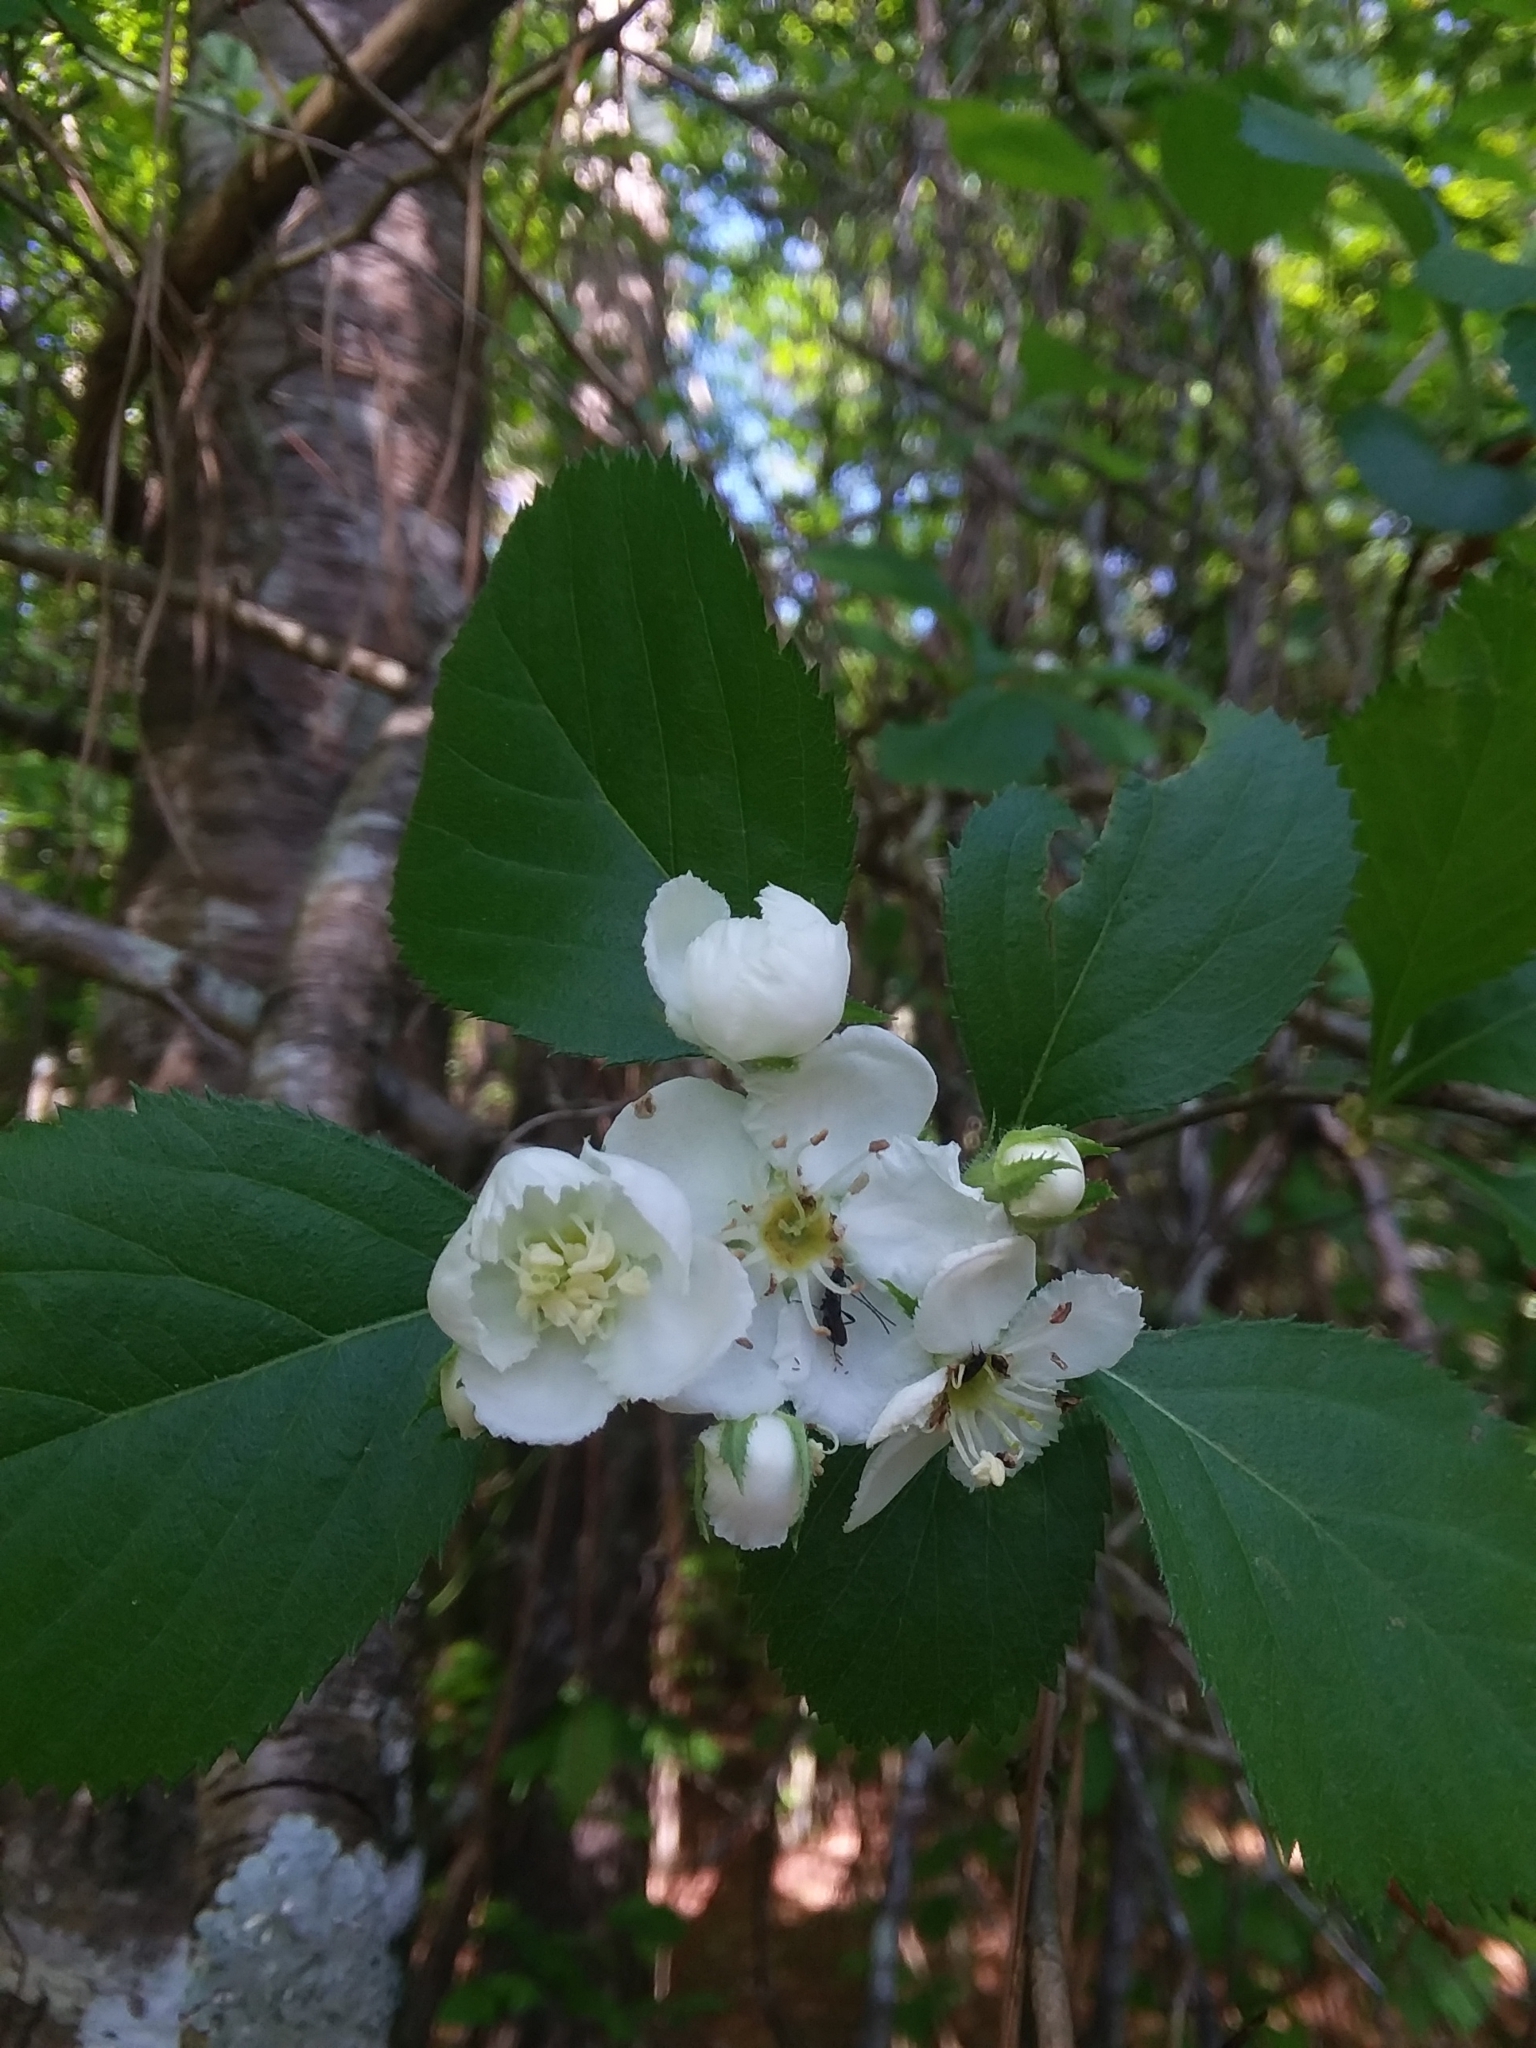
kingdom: Plantae
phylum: Tracheophyta
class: Magnoliopsida
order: Rosales
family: Rosaceae
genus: Crataegus
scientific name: Crataegus ashei
